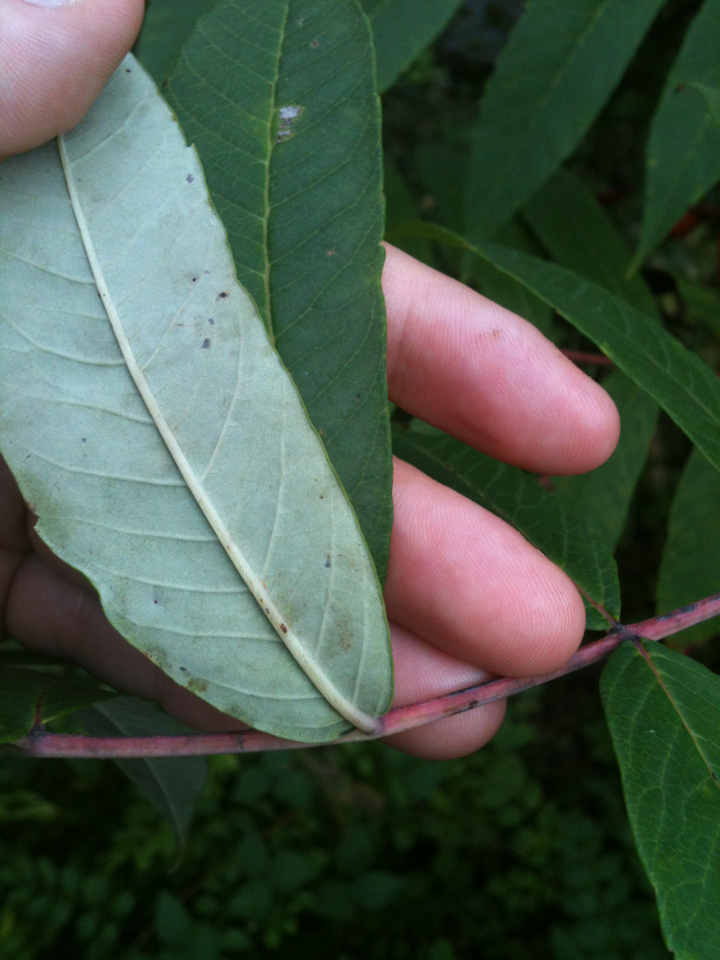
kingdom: Plantae
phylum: Tracheophyta
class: Magnoliopsida
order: Sapindales
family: Anacardiaceae
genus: Rhus
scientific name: Rhus glabra
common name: Scarlet sumac
